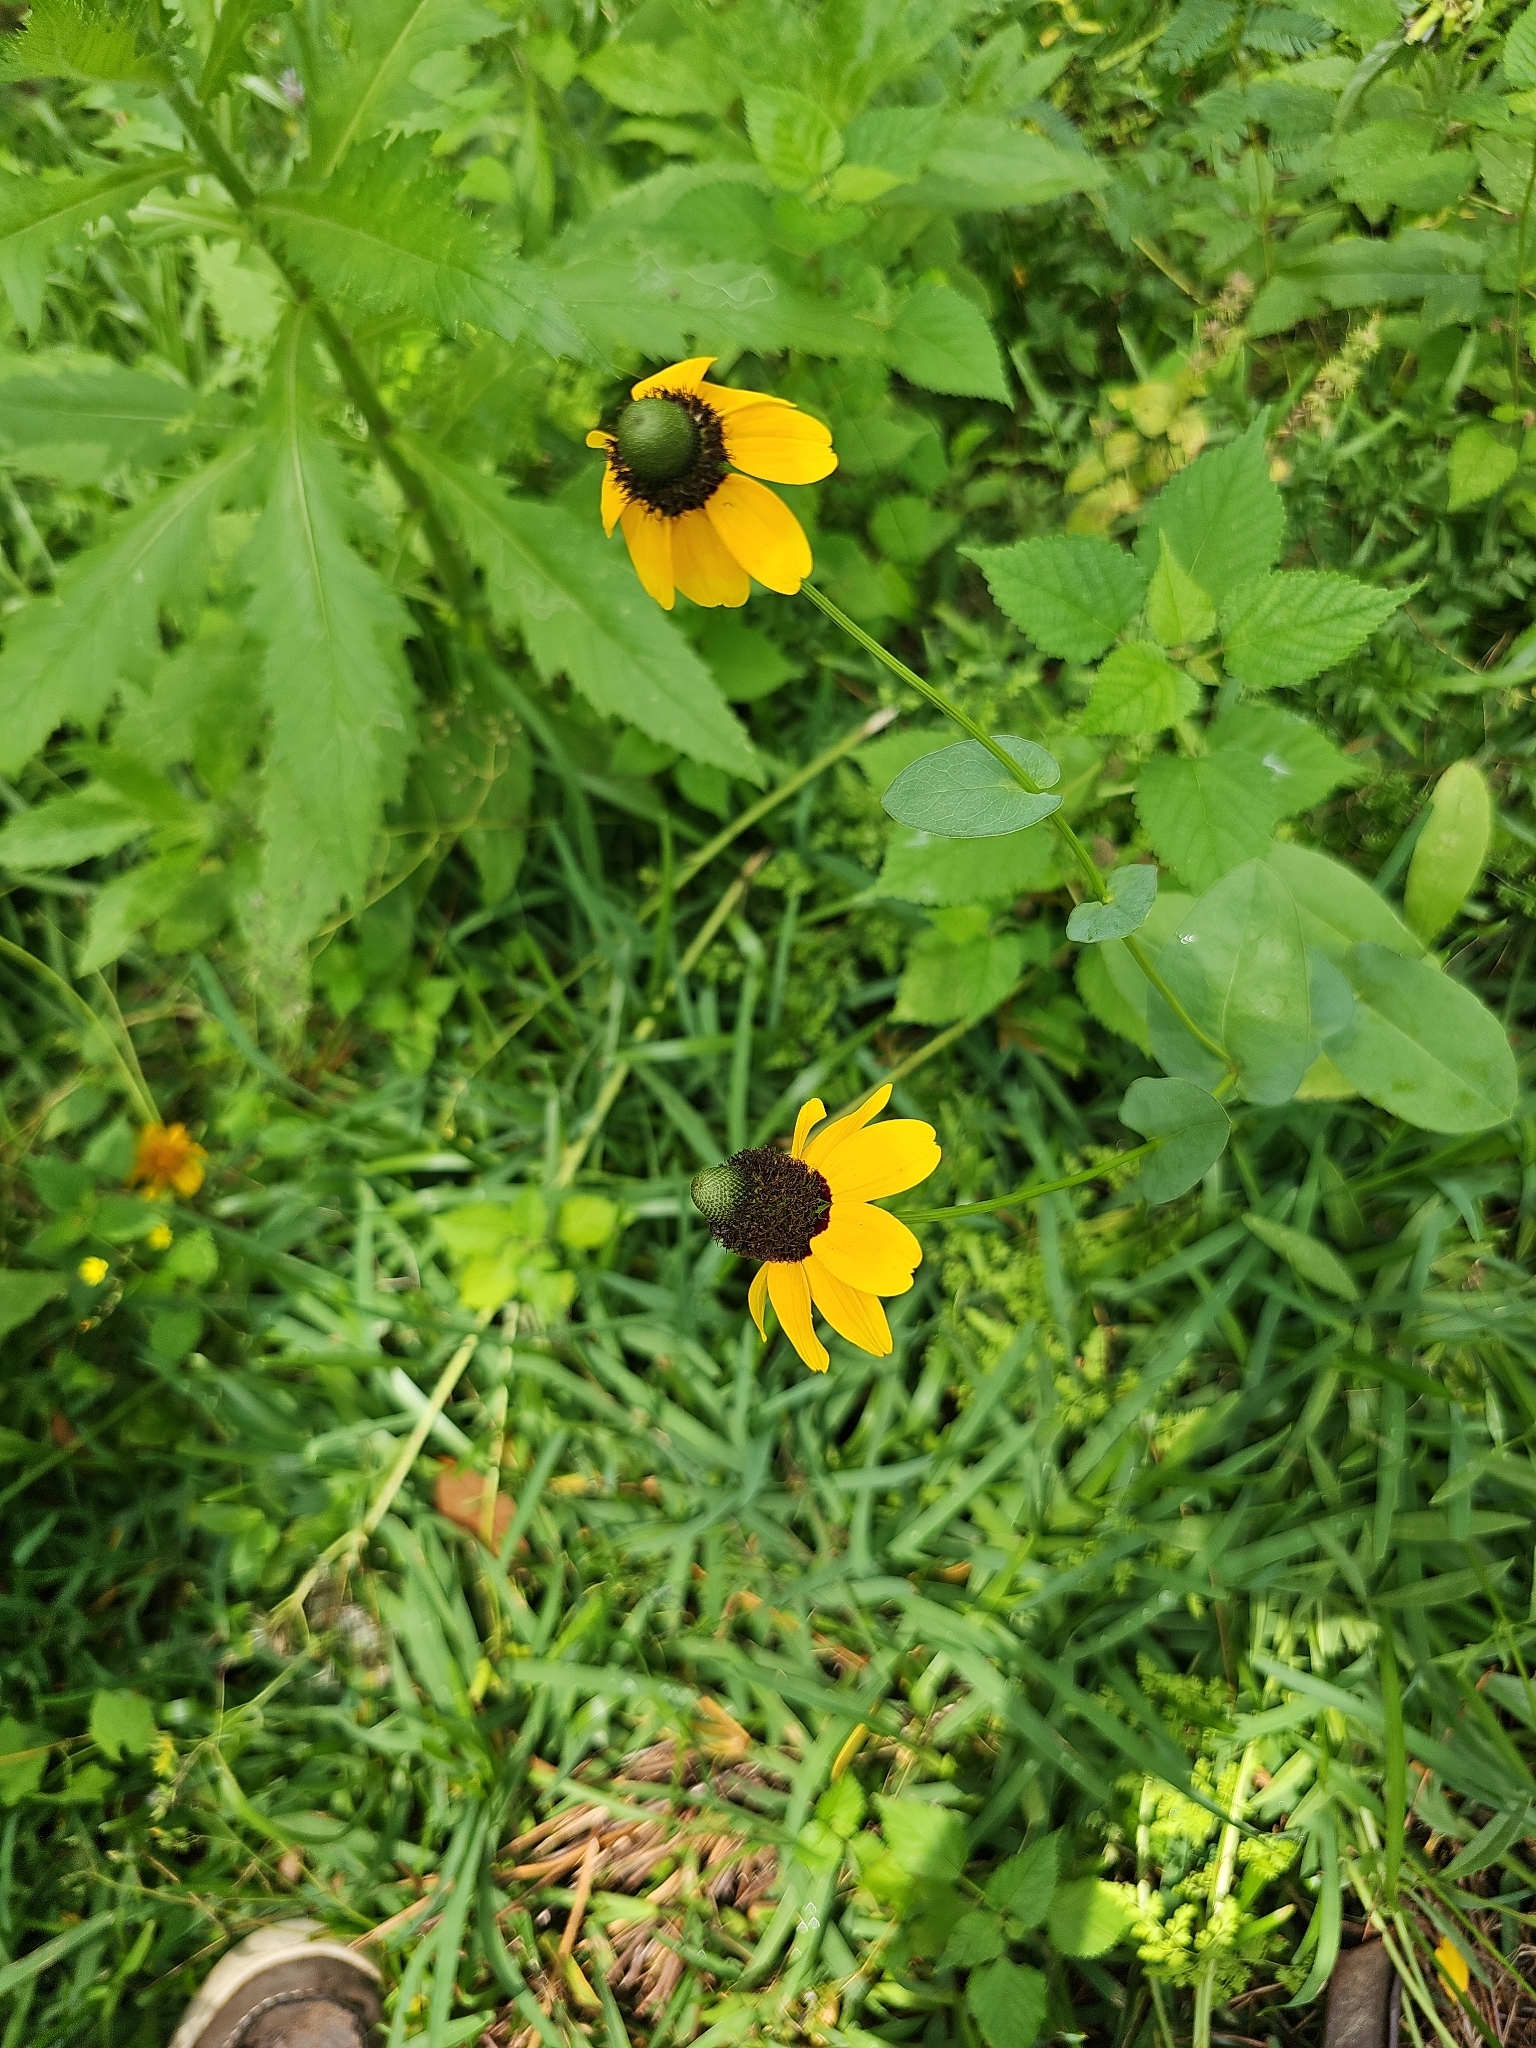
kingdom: Plantae
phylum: Tracheophyta
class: Magnoliopsida
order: Asterales
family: Asteraceae
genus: Rudbeckia
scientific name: Rudbeckia amplexicaulis
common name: Clasping-leaf coneflower
